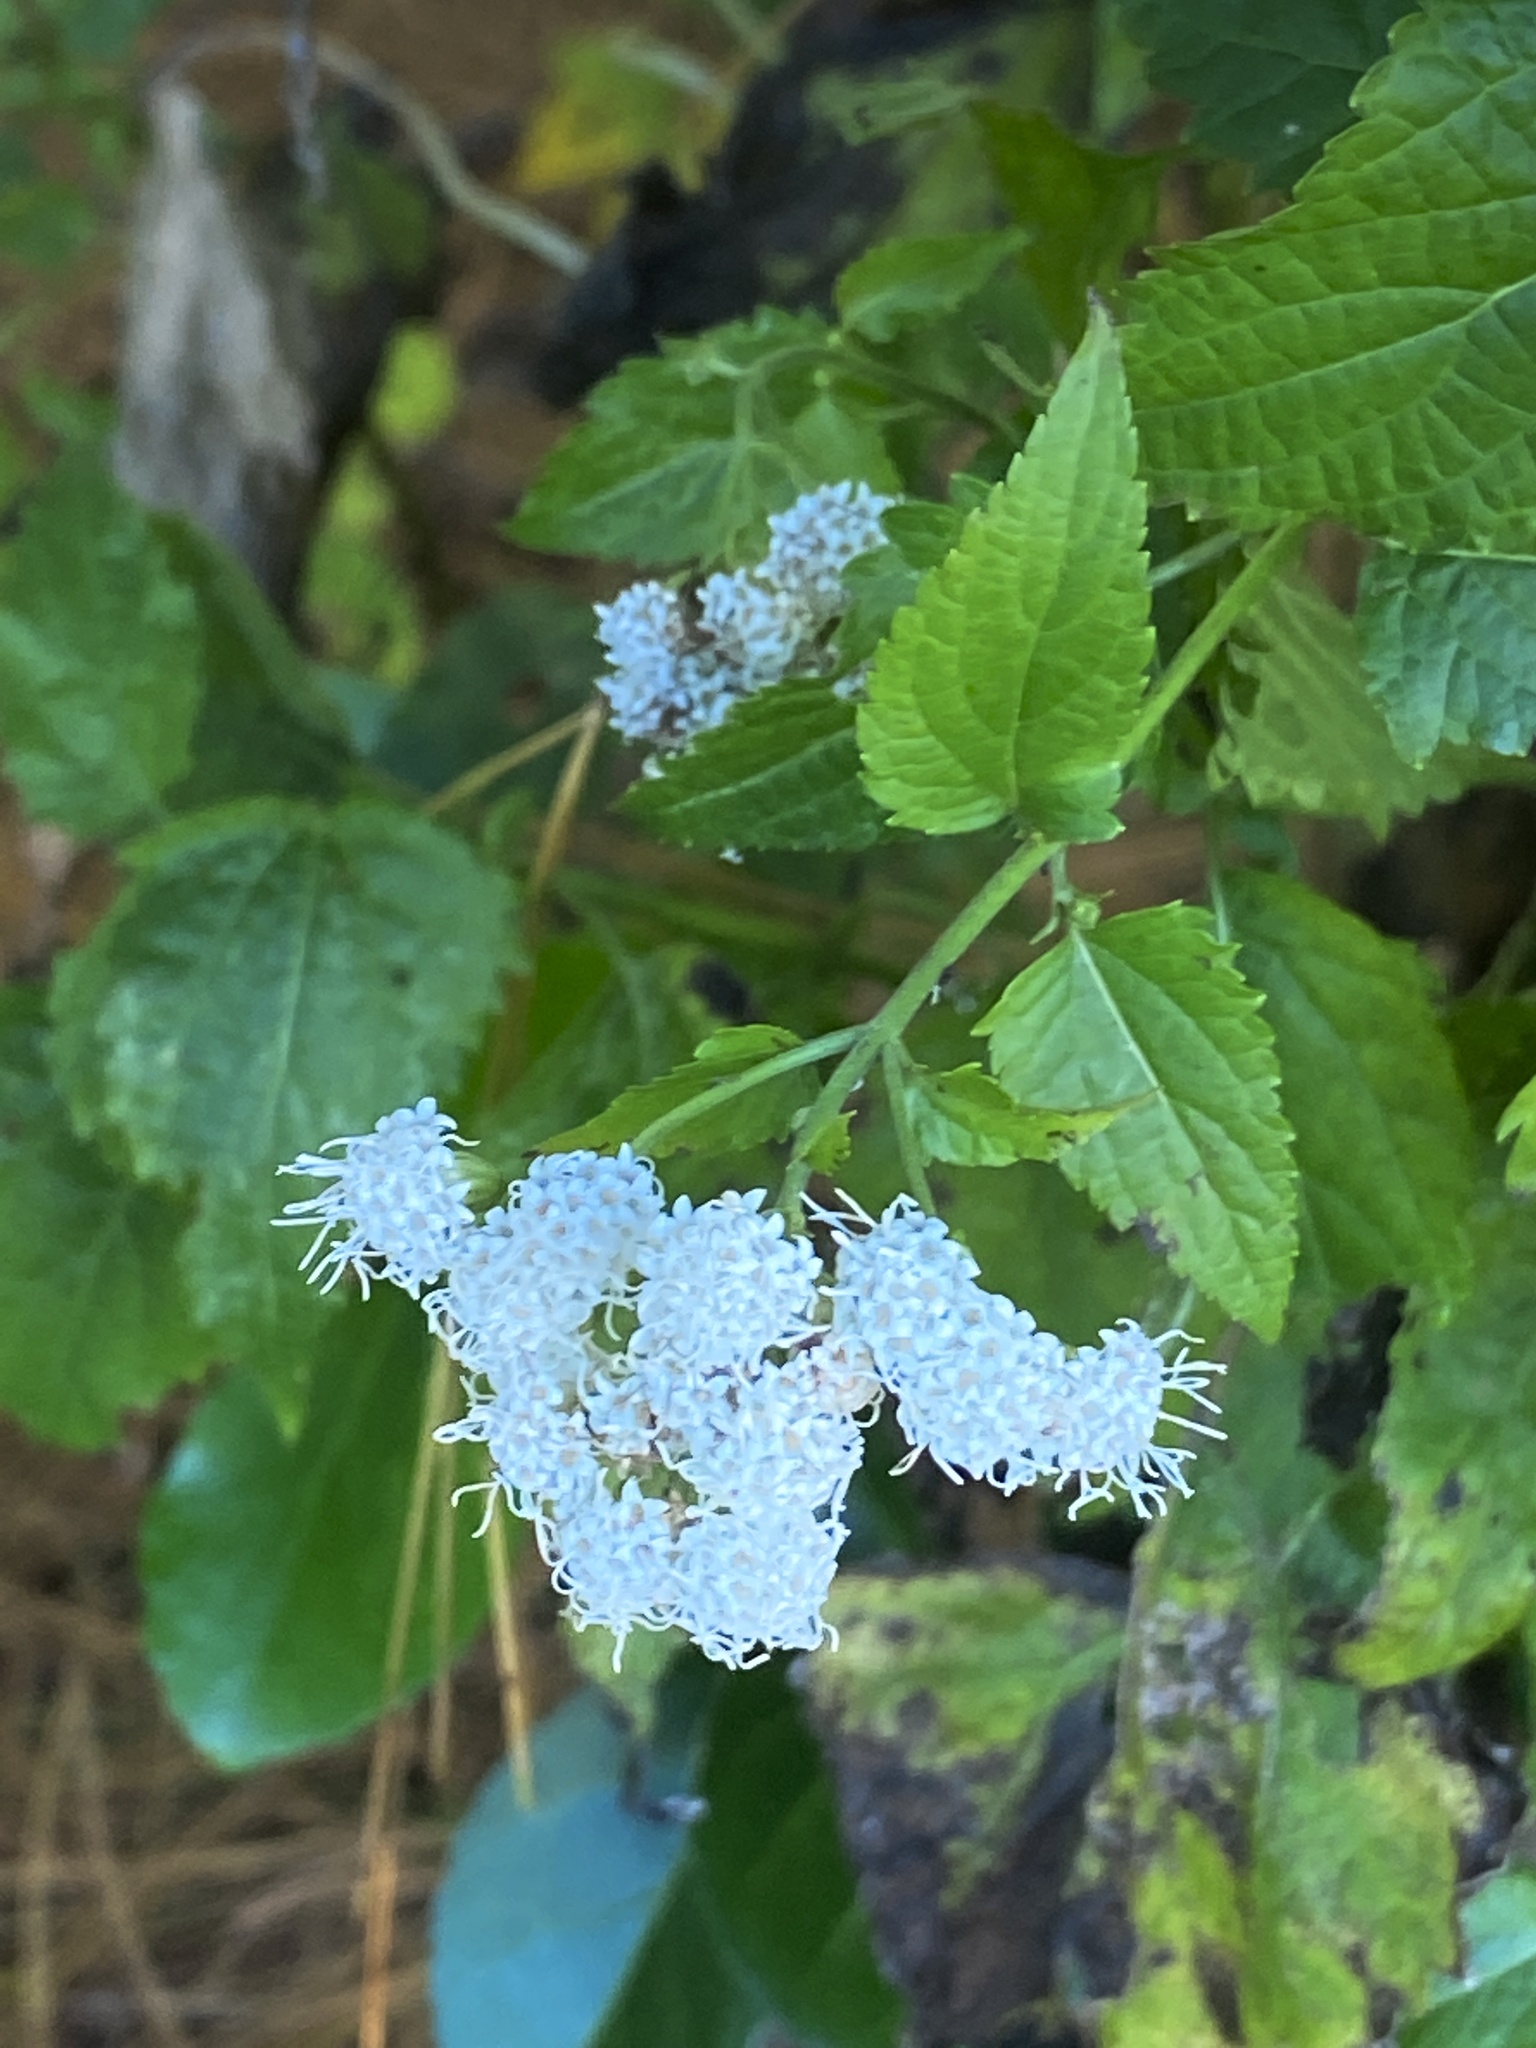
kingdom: Plantae
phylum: Tracheophyta
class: Magnoliopsida
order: Asterales
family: Asteraceae
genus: Ageratina
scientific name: Ageratina altissima
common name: White snakeroot
